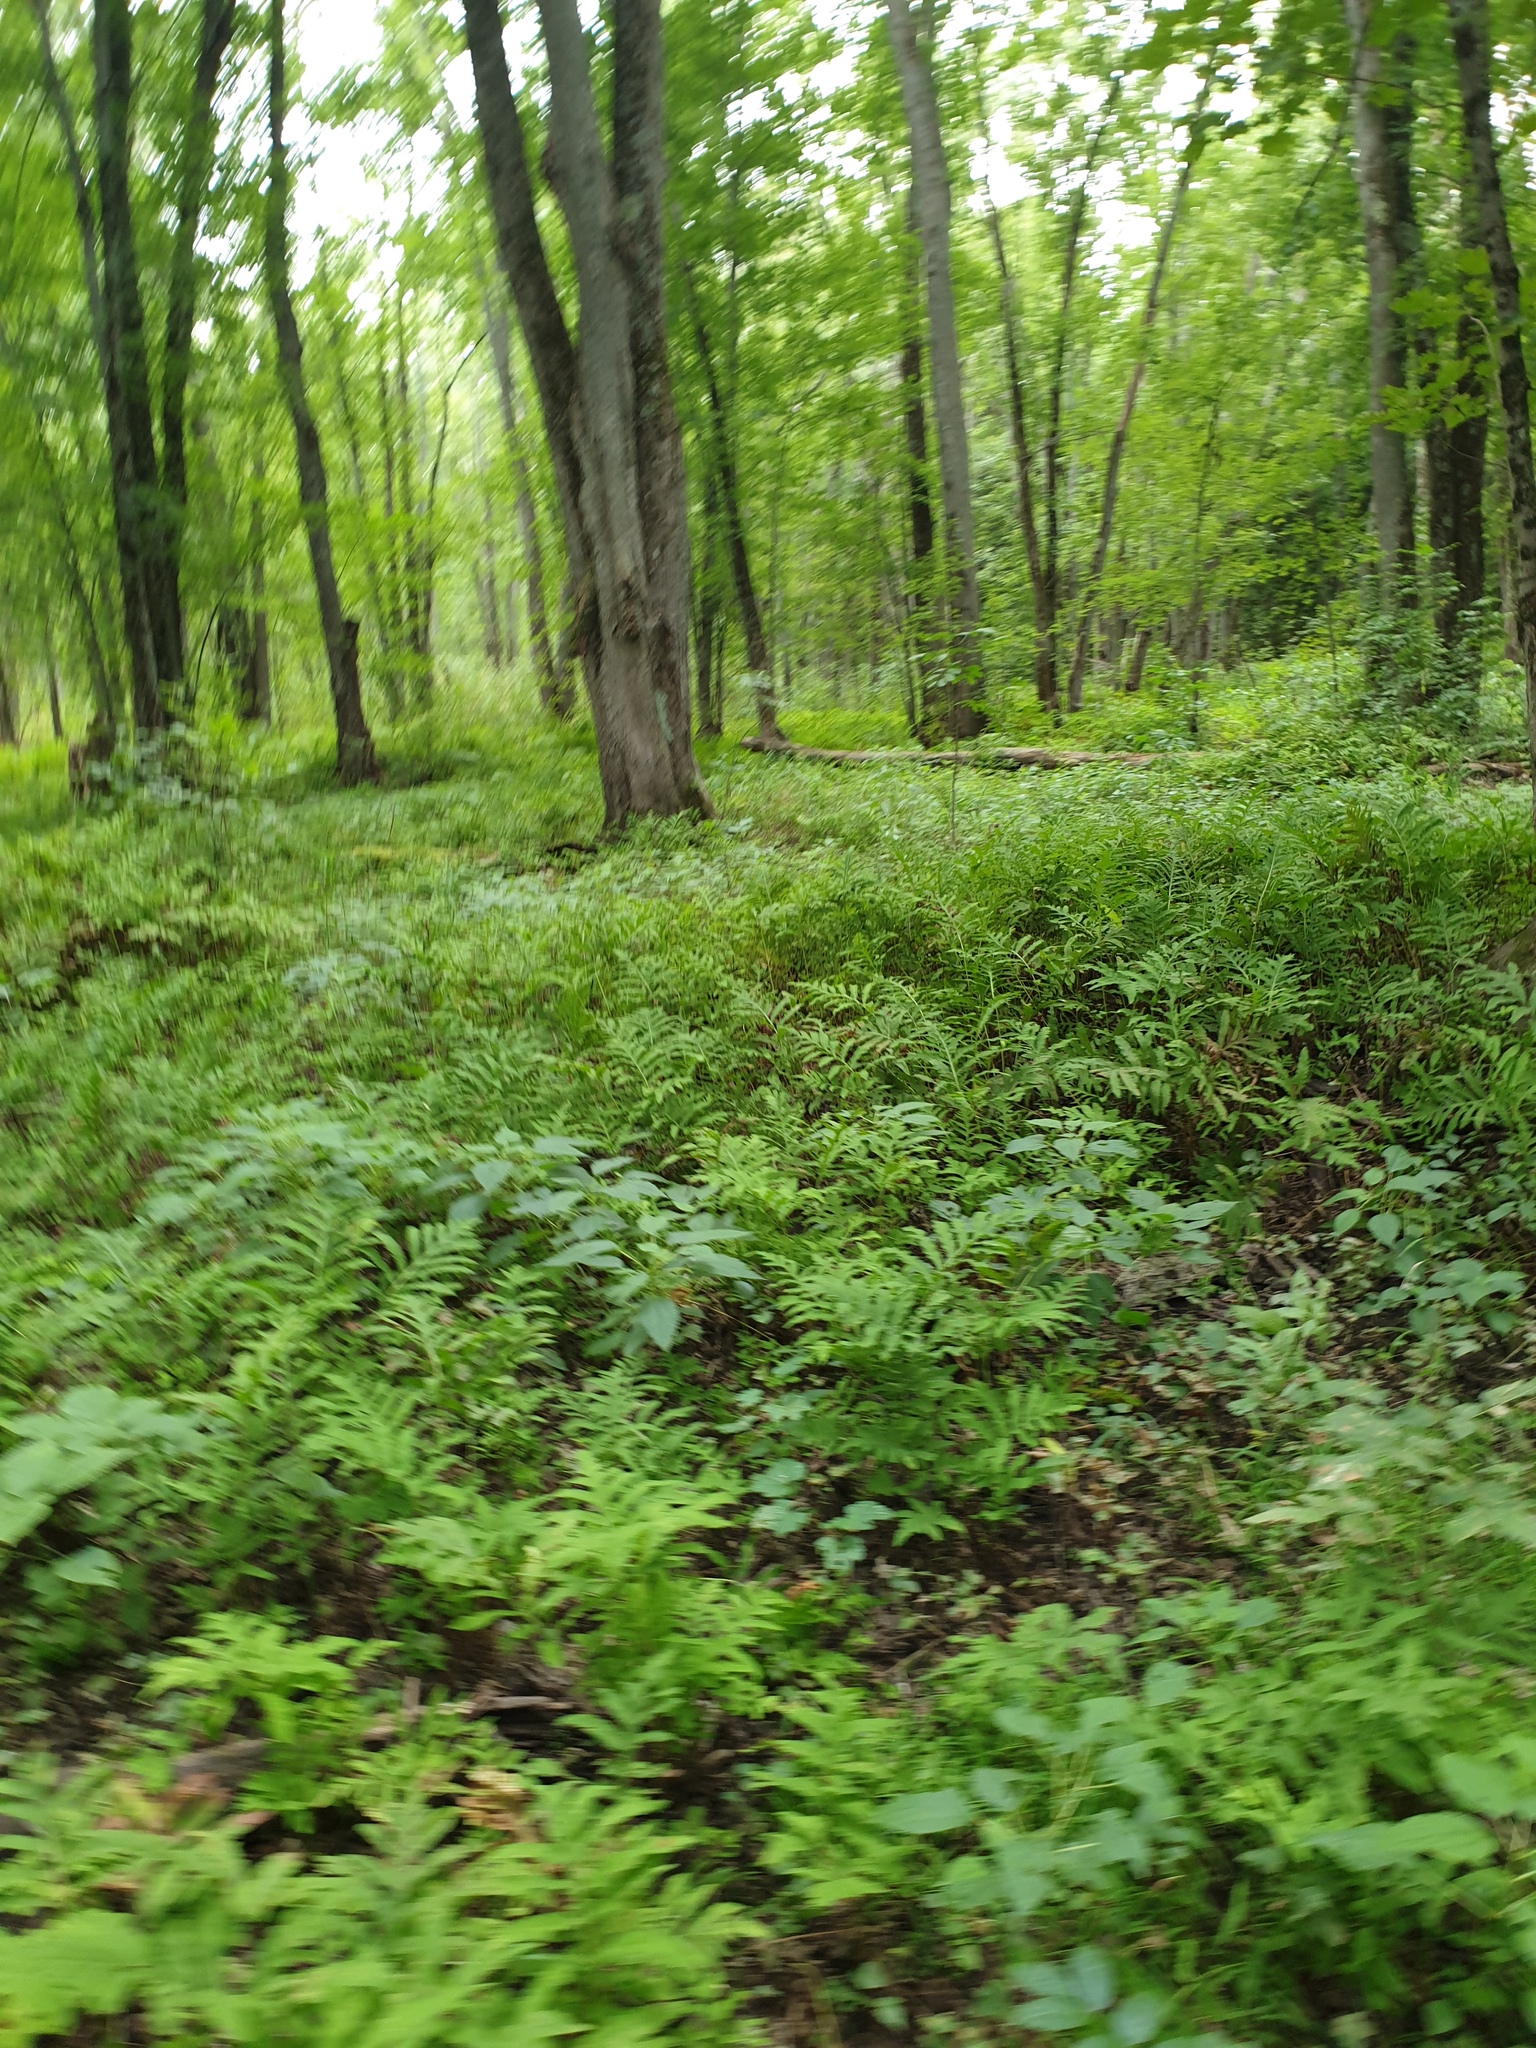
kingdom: Plantae
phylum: Tracheophyta
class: Polypodiopsida
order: Osmundales
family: Osmundaceae
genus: Osmunda
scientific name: Osmunda spectabilis
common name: American royal fern
